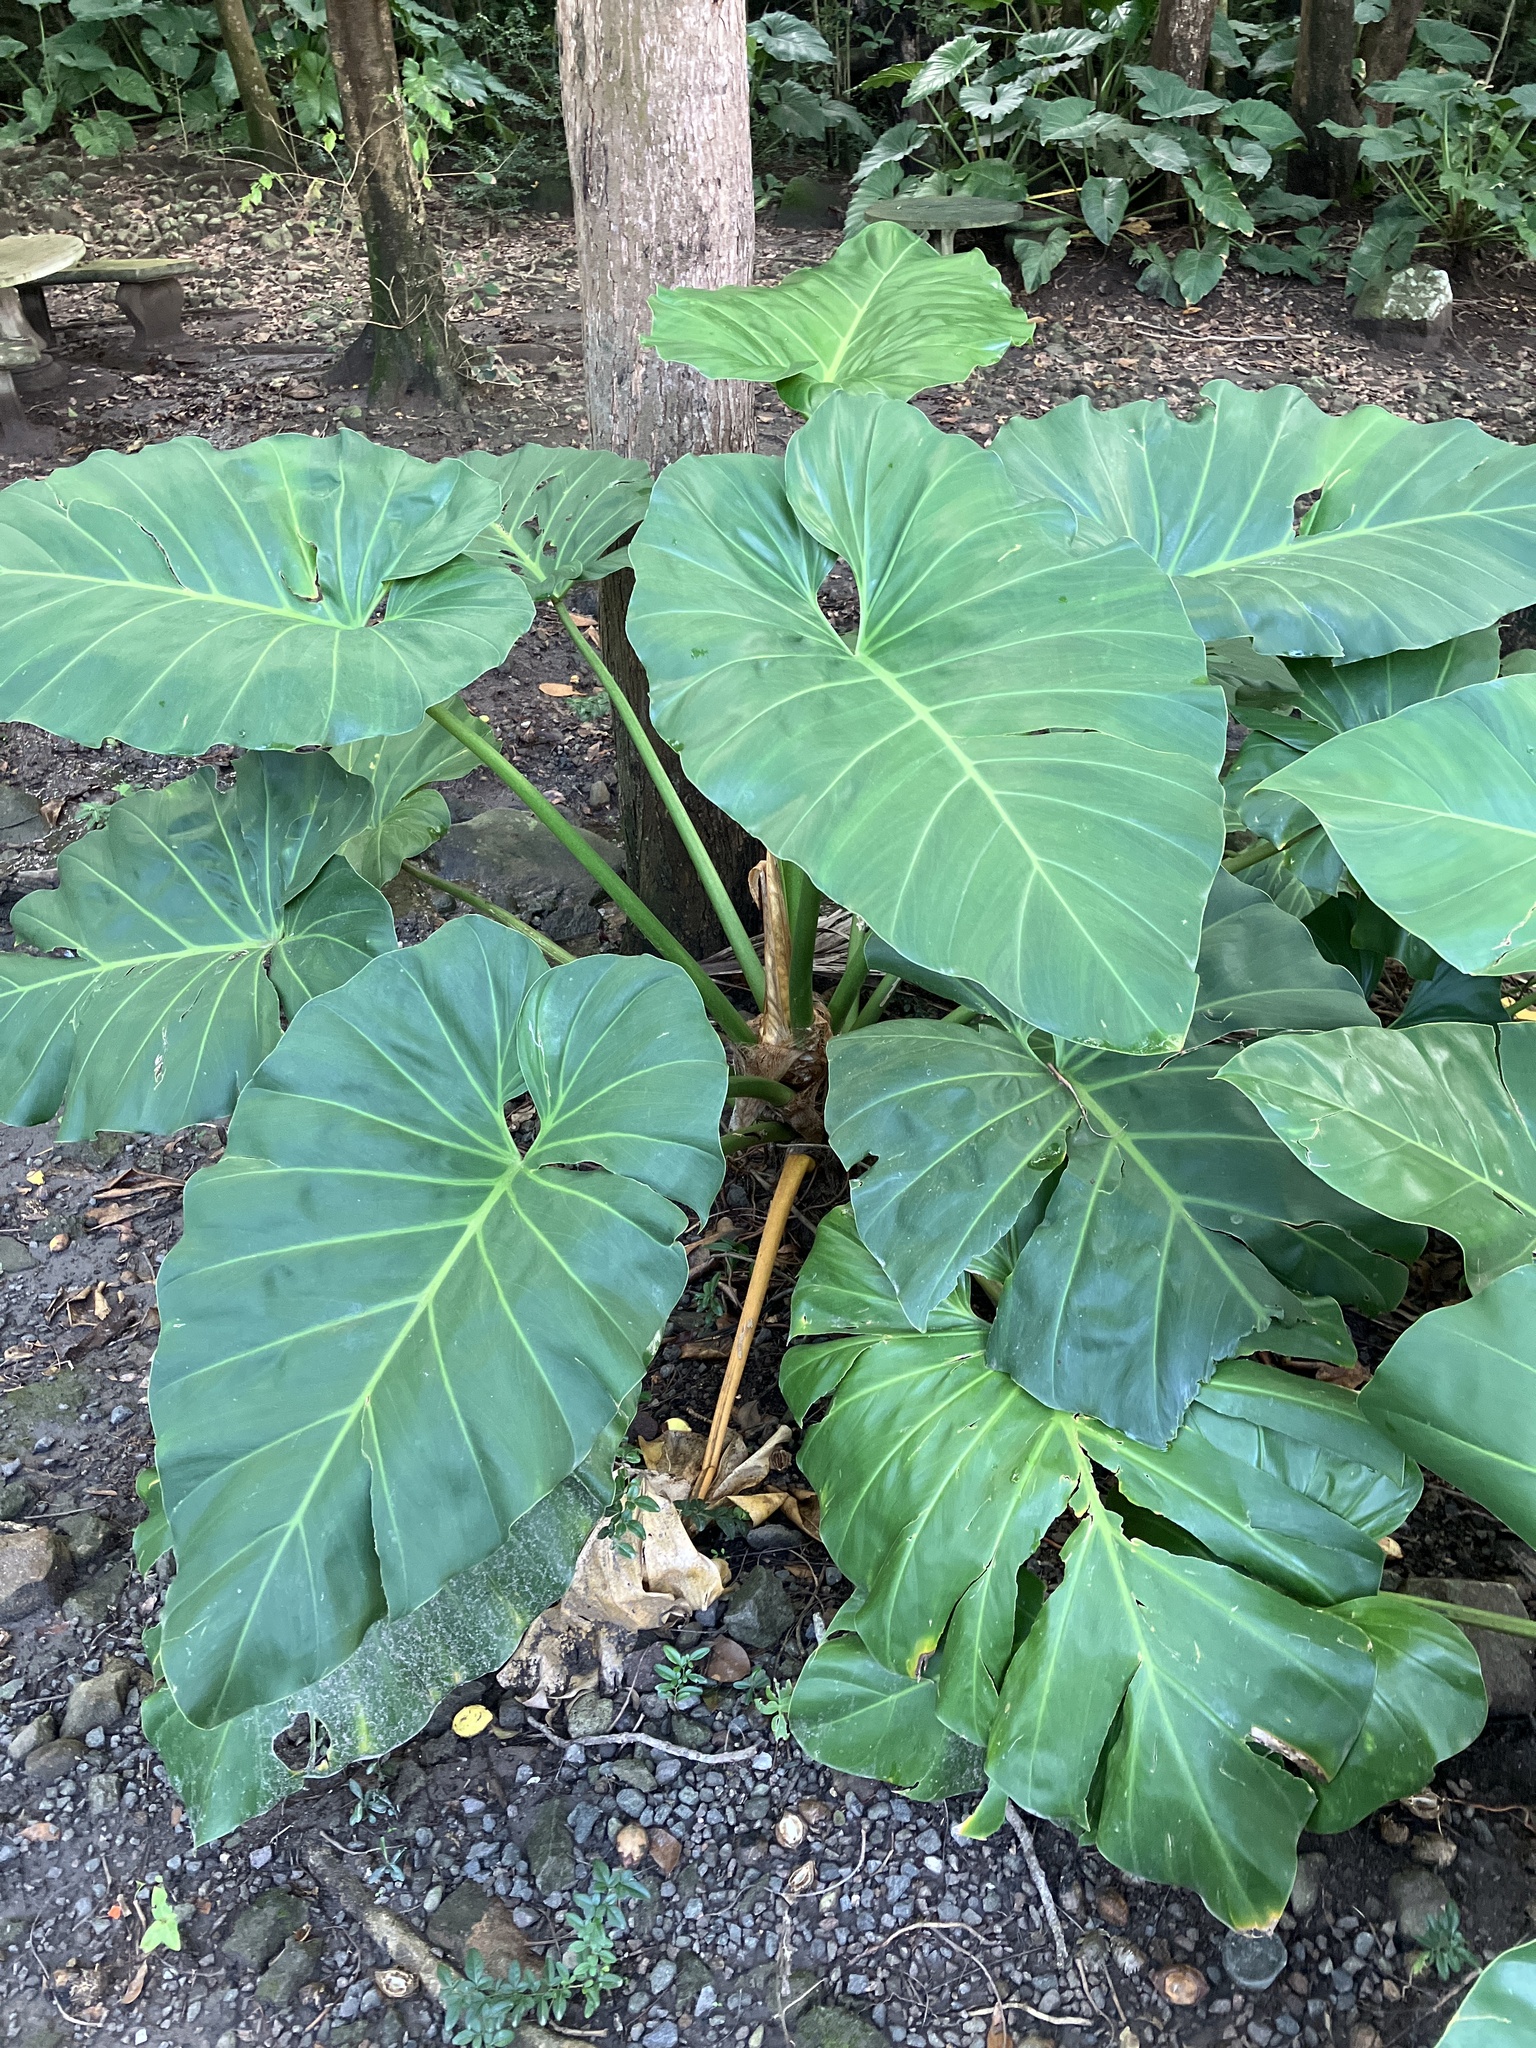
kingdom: Plantae
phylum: Tracheophyta
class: Liliopsida
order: Alismatales
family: Araceae
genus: Philodendron
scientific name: Philodendron giganteum
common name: Giant philodendron
